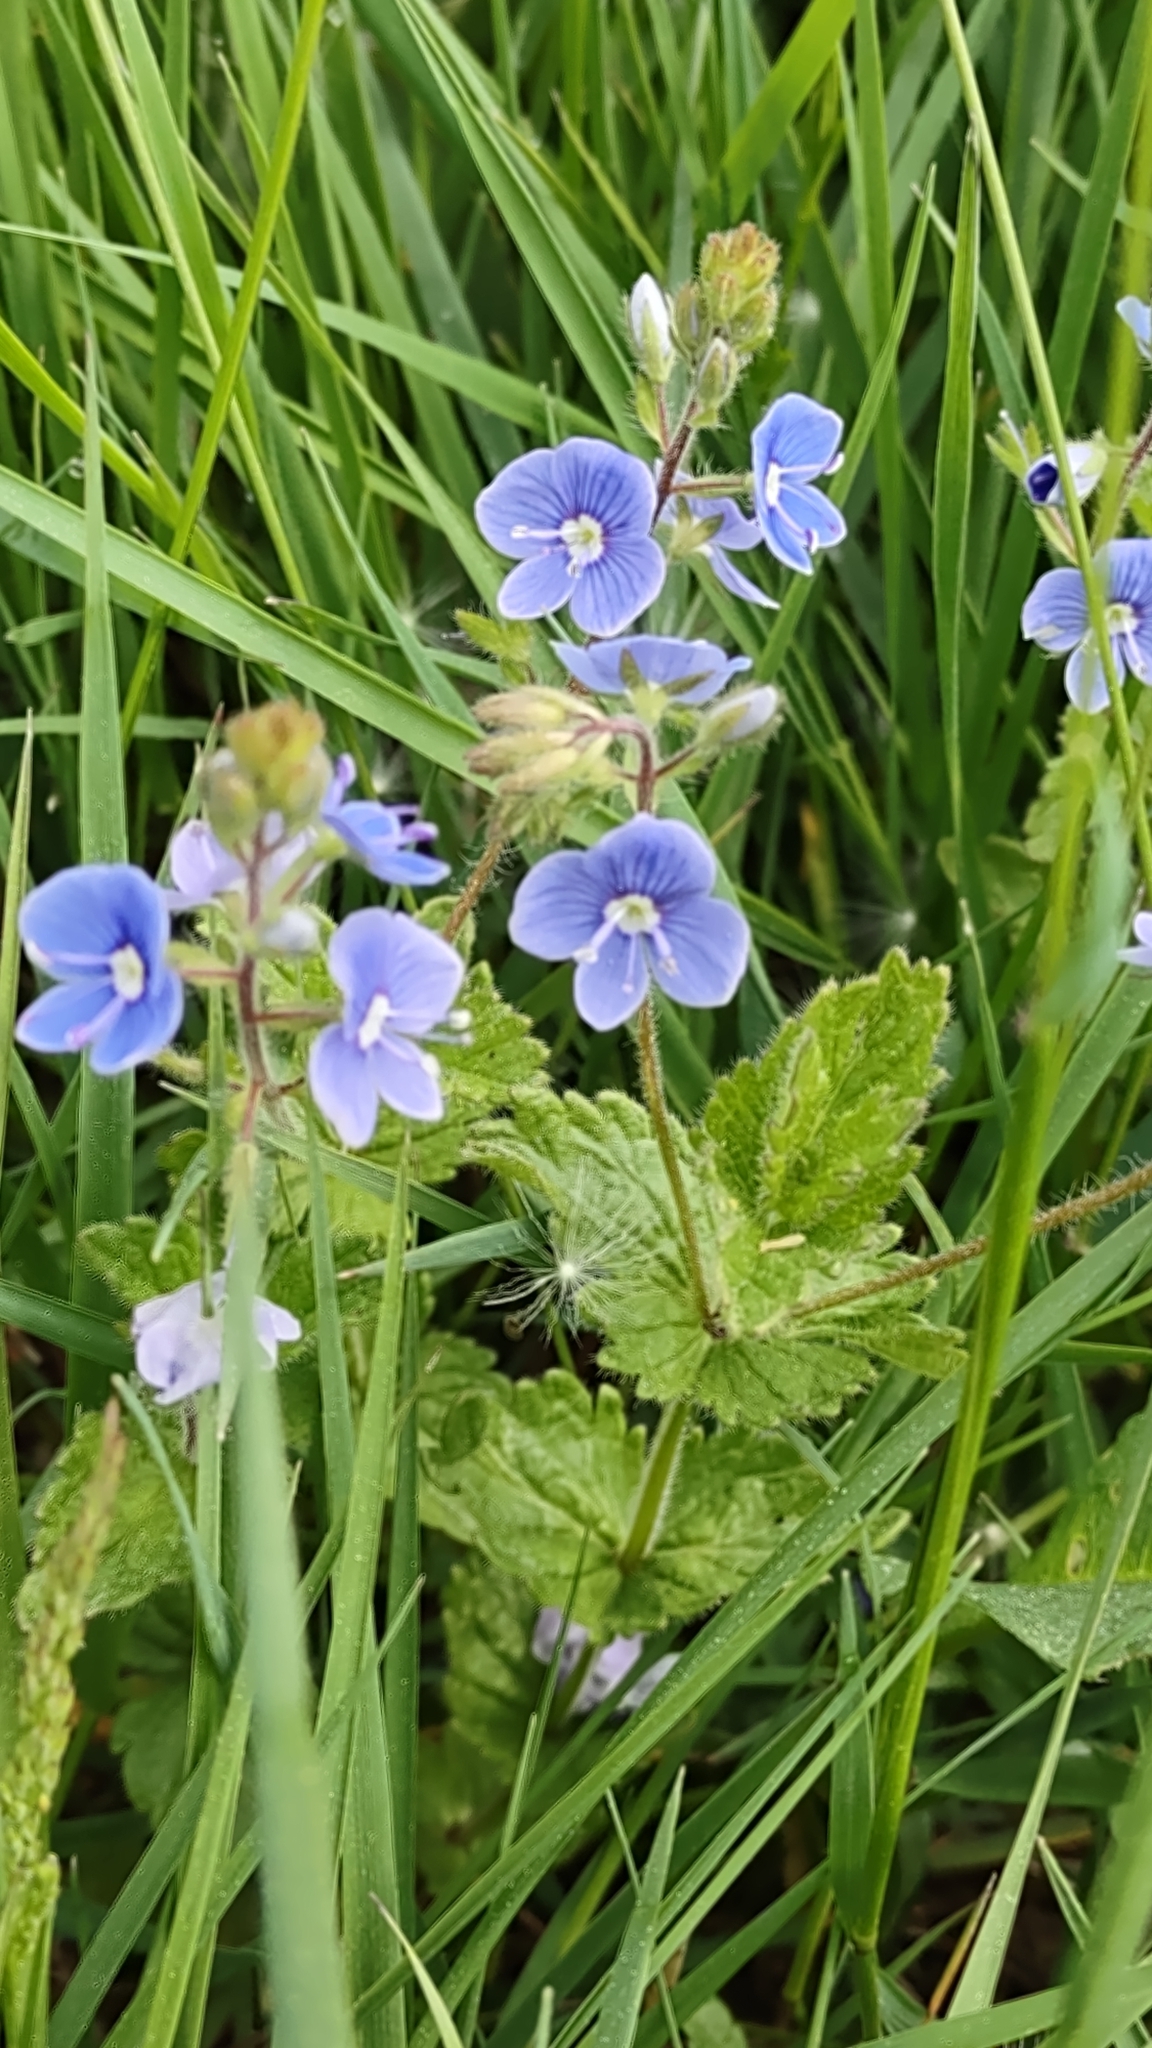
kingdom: Plantae
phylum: Tracheophyta
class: Magnoliopsida
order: Lamiales
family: Plantaginaceae
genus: Veronica
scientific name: Veronica chamaedrys
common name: Germander speedwell
